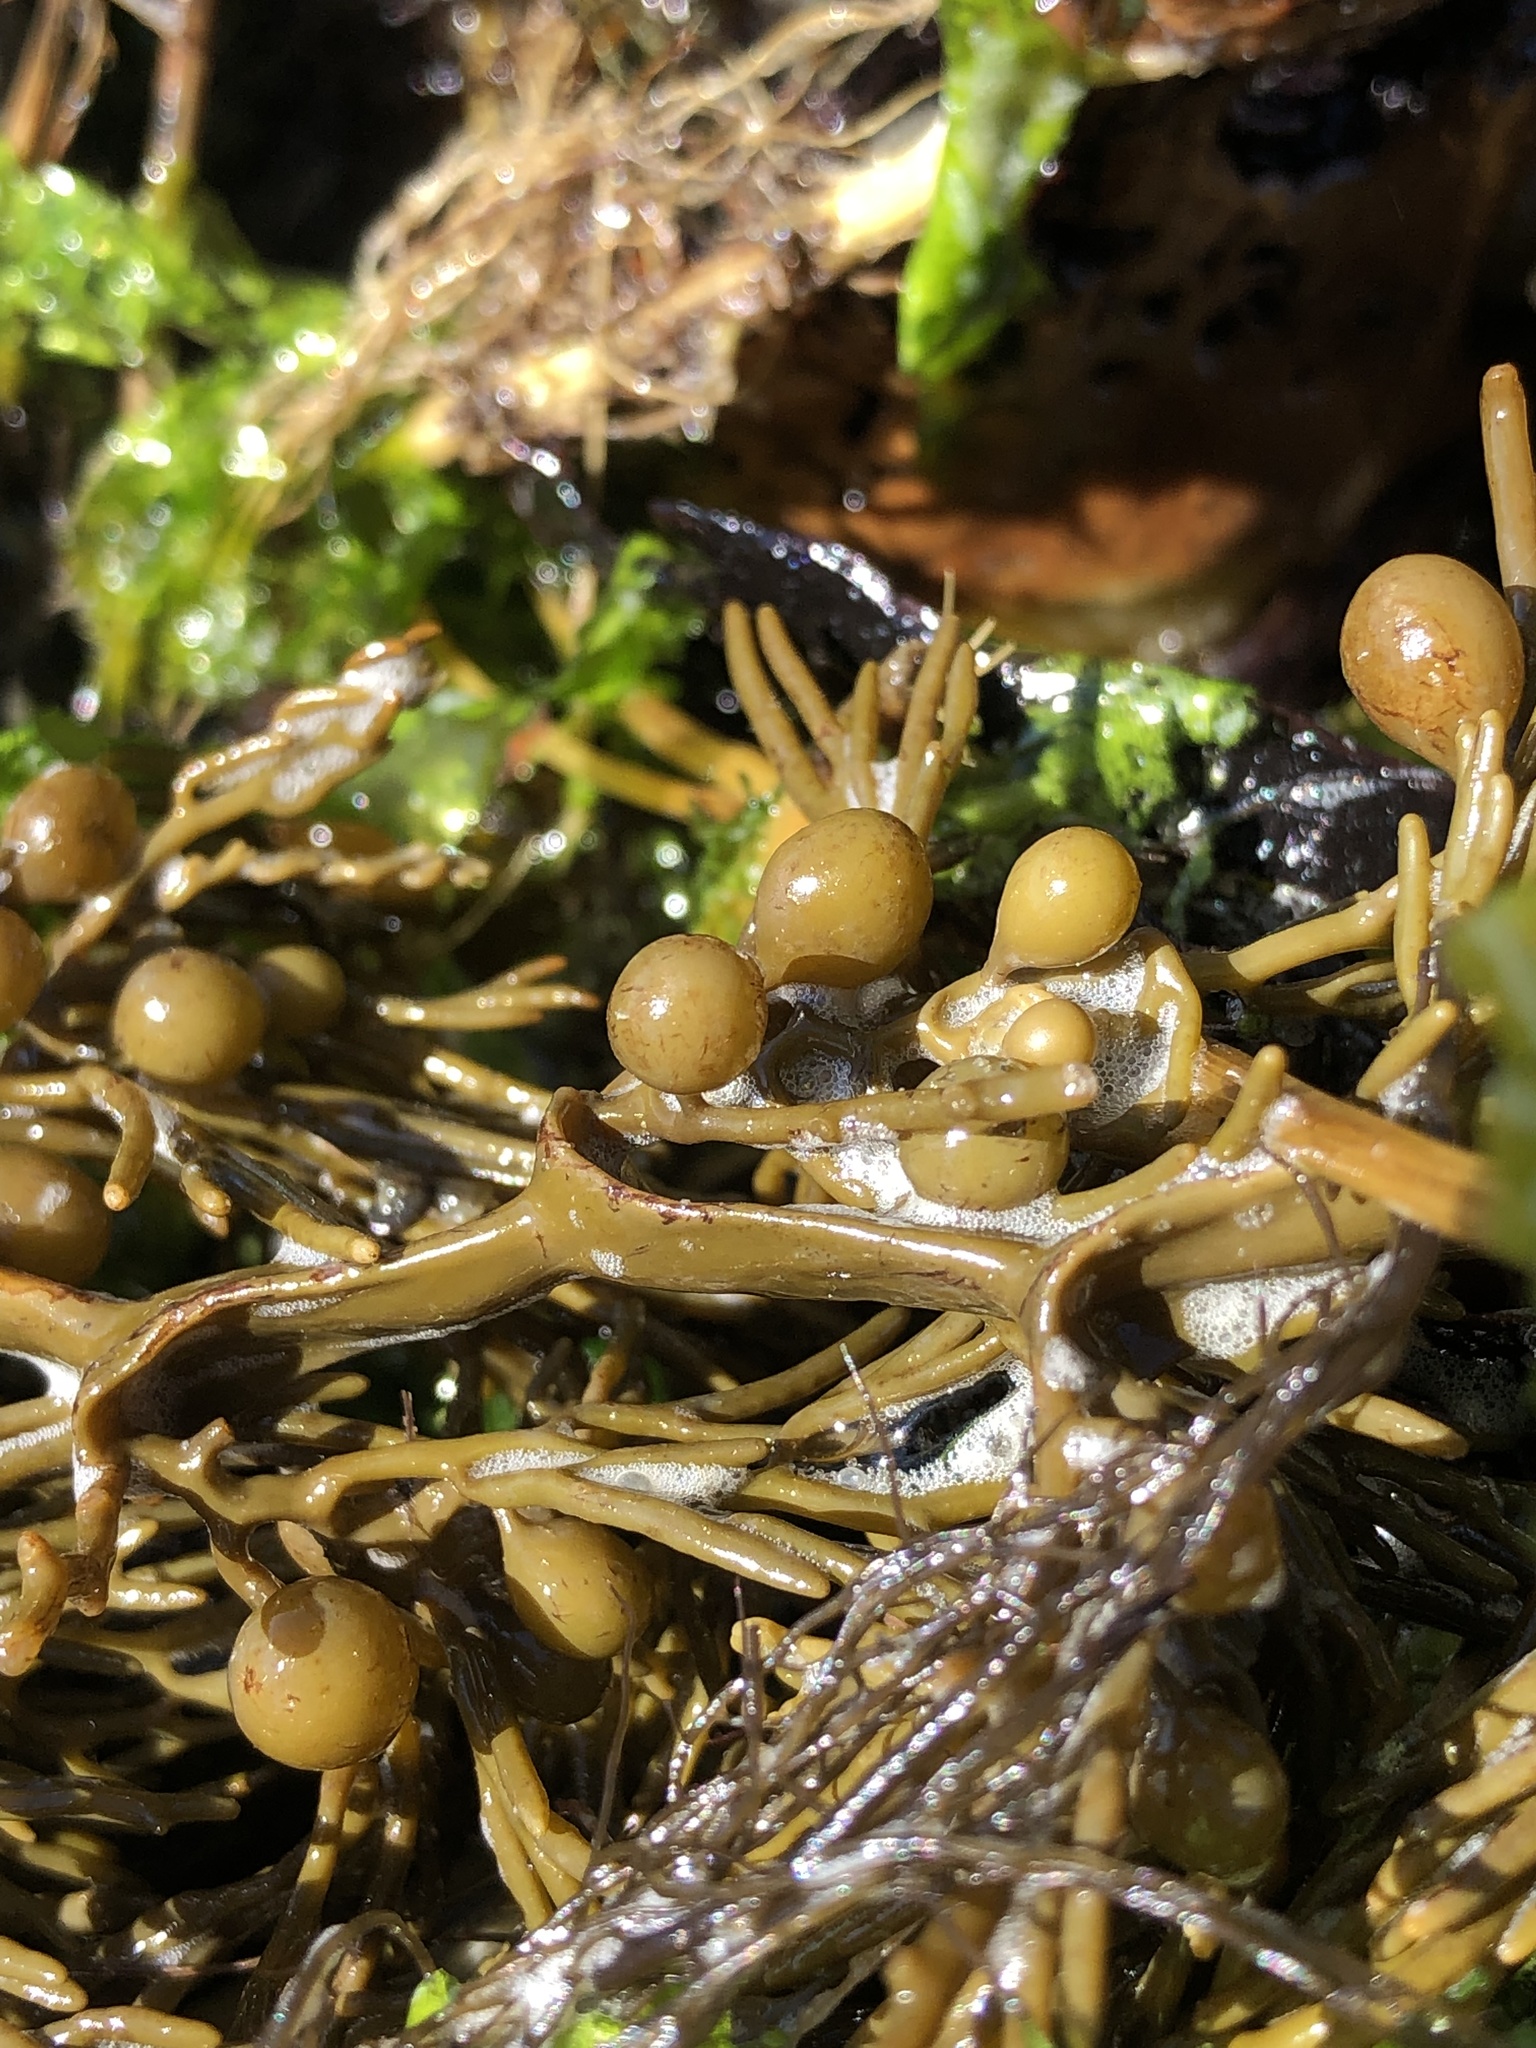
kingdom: Chromista
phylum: Ochrophyta
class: Phaeophyceae
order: Fucales
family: Sargassaceae
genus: Cystophora
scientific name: Cystophora scalaris
